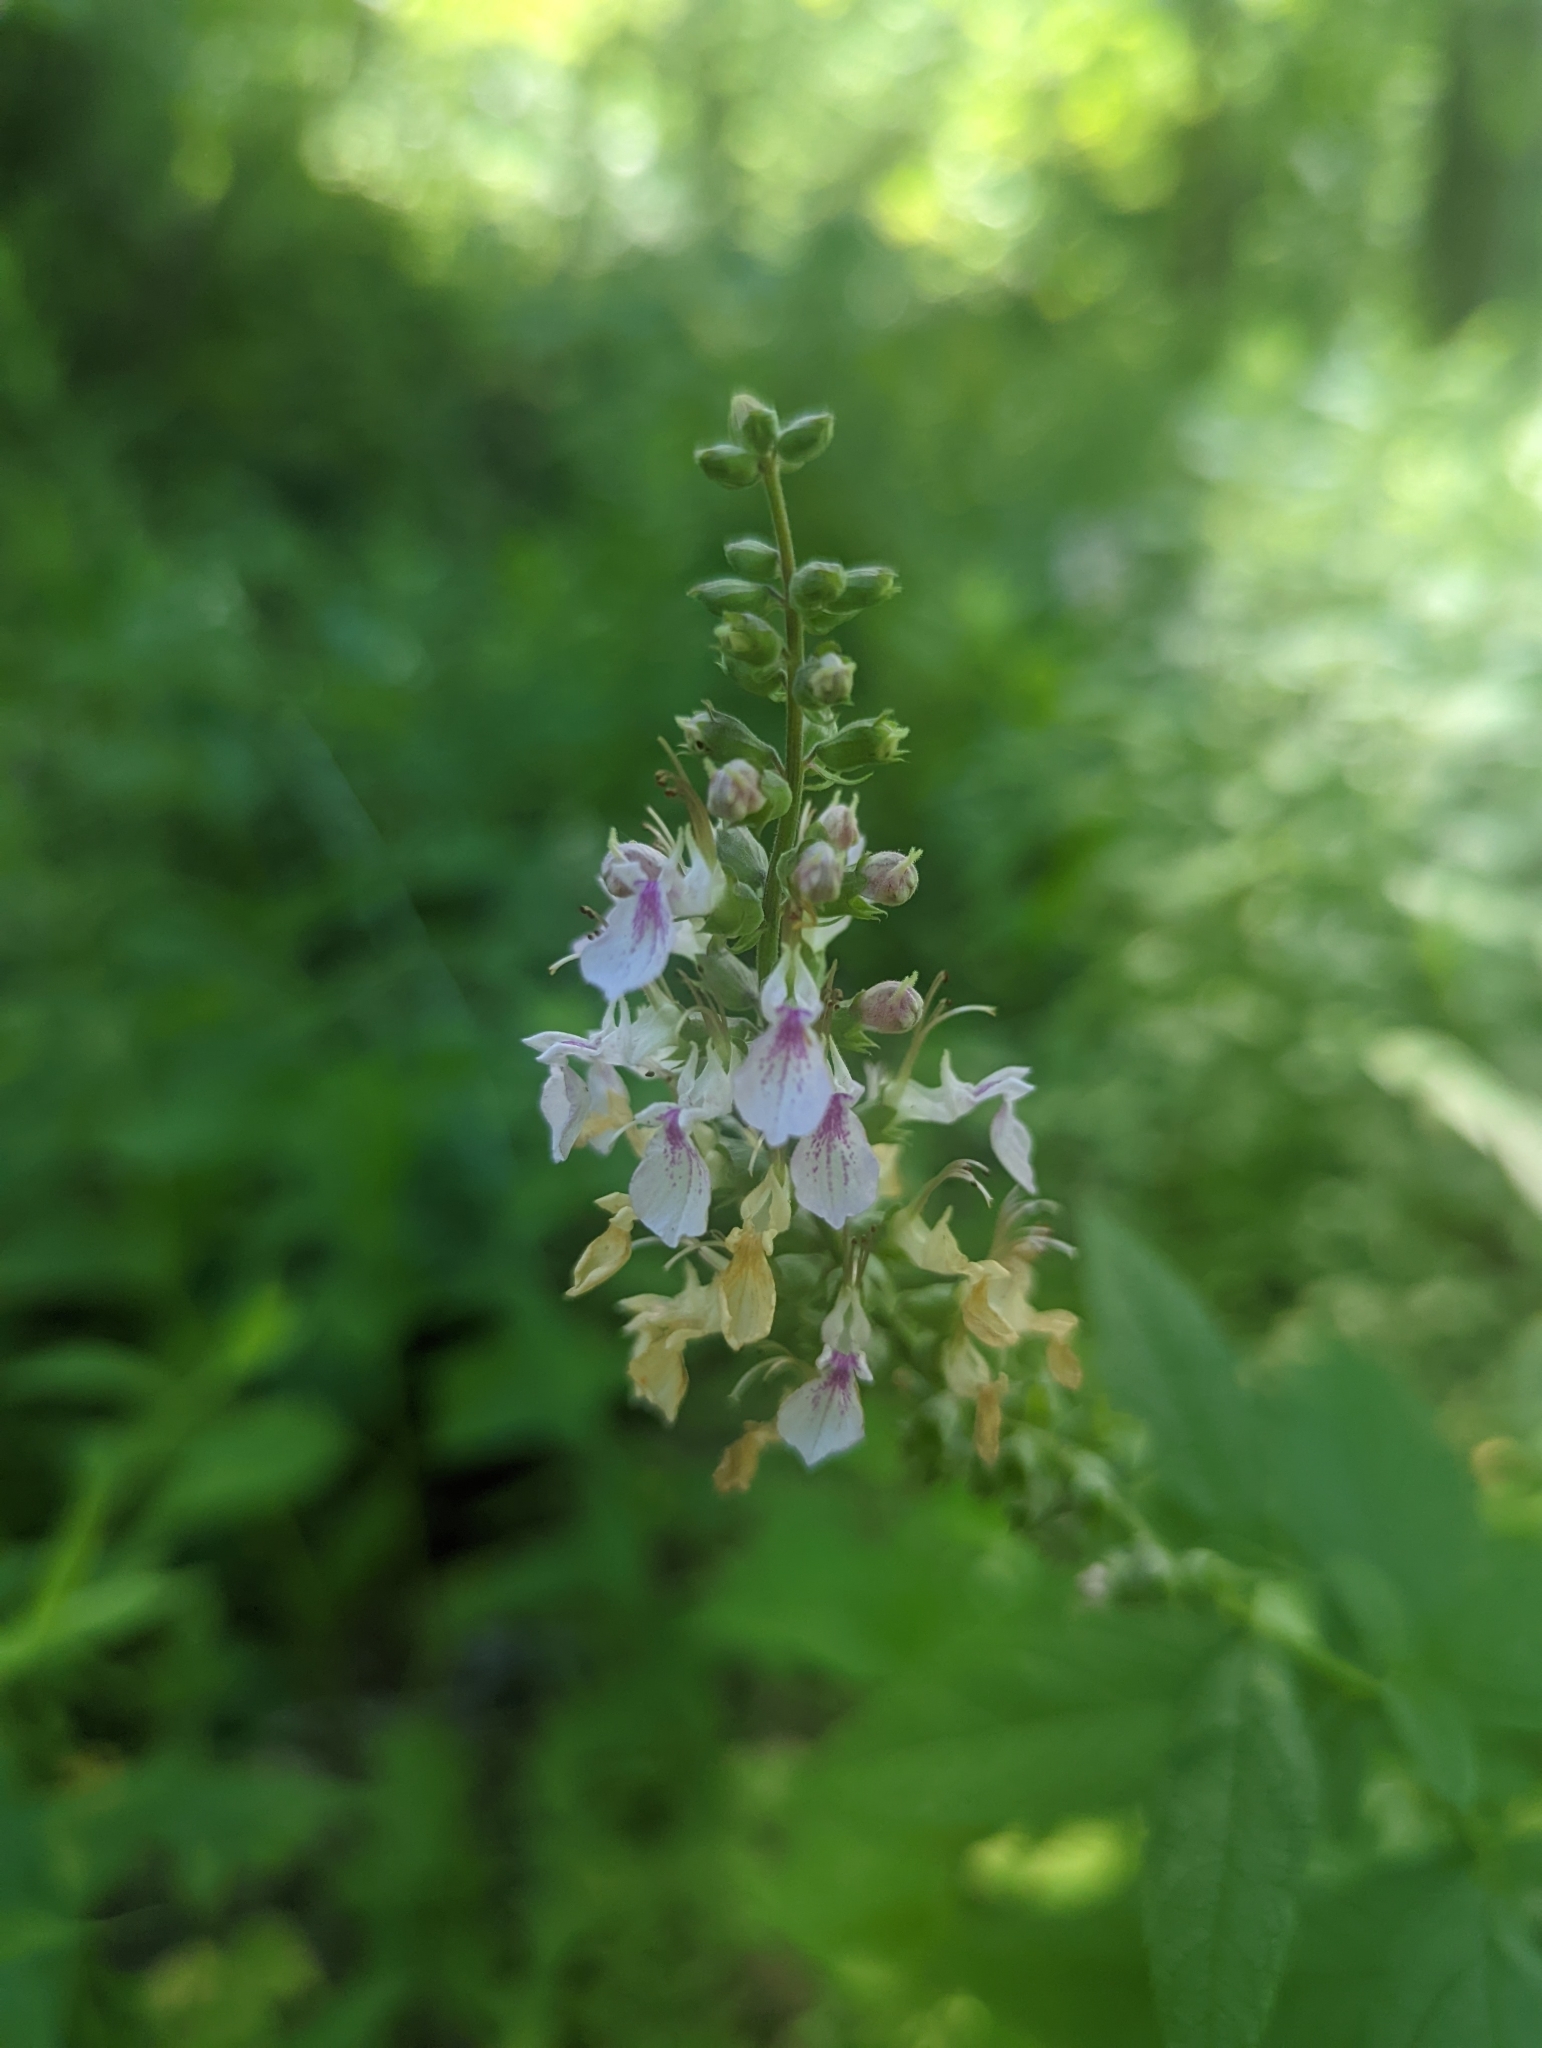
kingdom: Plantae
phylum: Tracheophyta
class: Magnoliopsida
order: Lamiales
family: Lamiaceae
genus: Teucrium
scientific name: Teucrium canadense
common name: American germander
